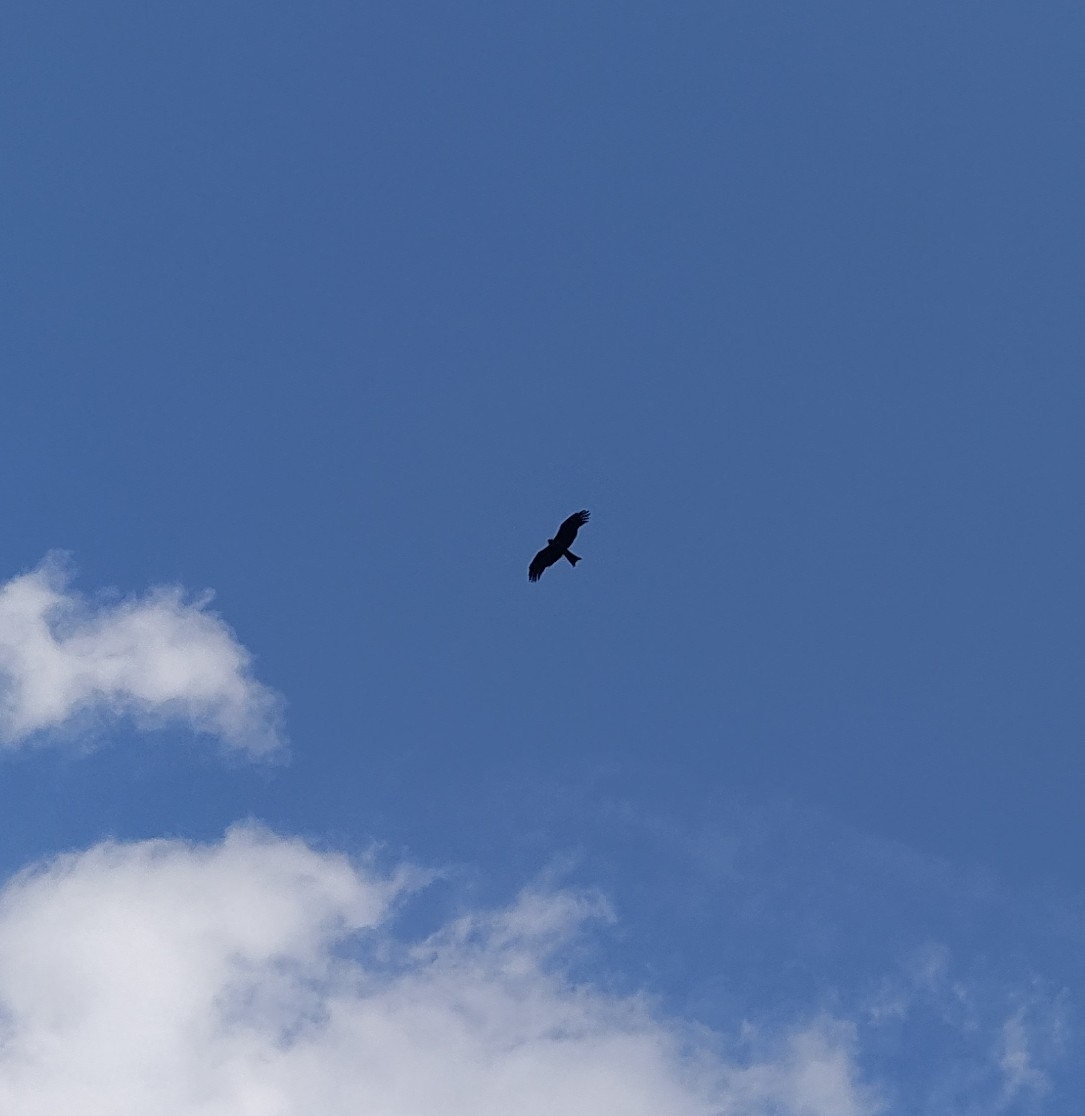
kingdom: Animalia
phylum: Chordata
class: Aves
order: Accipitriformes
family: Accipitridae
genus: Milvus
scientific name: Milvus migrans
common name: Black kite
